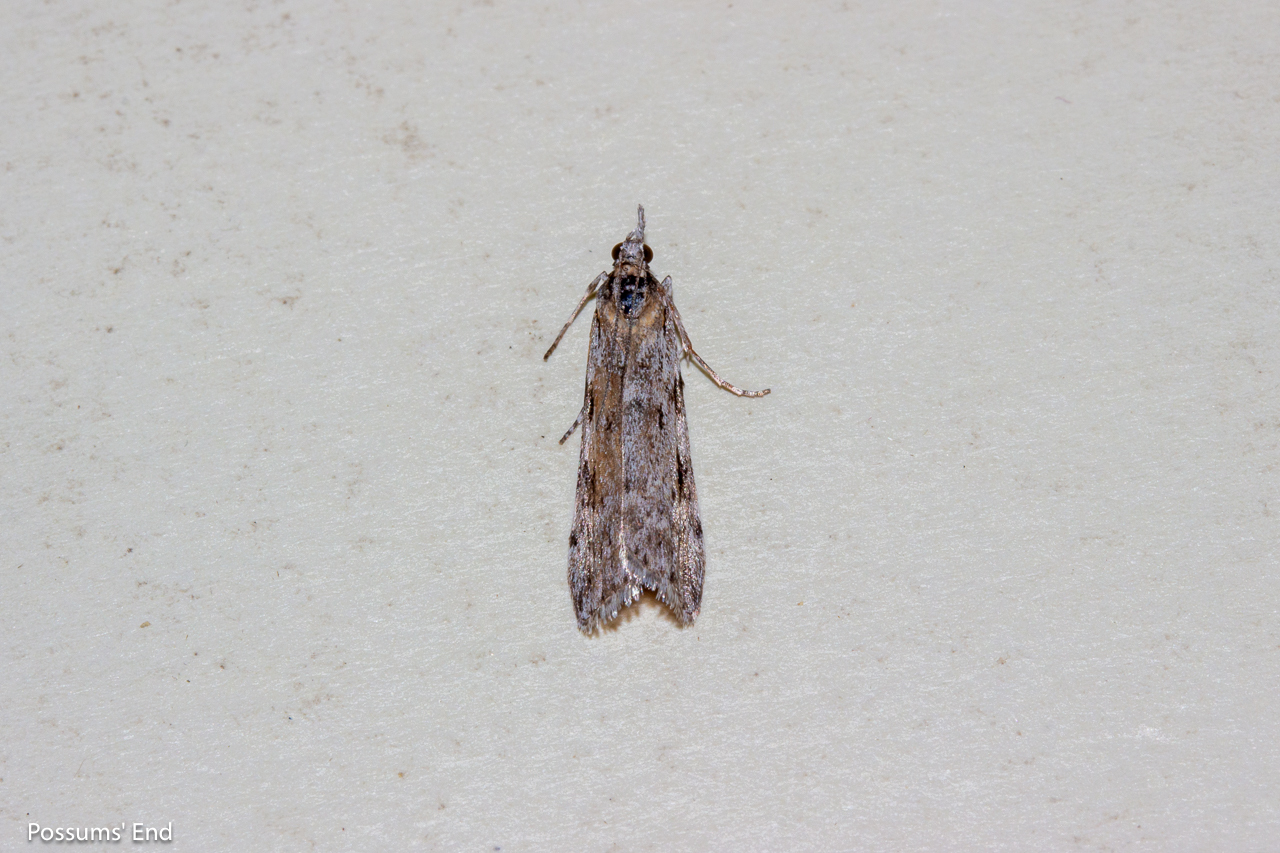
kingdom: Animalia
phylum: Arthropoda
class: Insecta
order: Lepidoptera
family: Crambidae
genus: Scoparia
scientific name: Scoparia halopis
